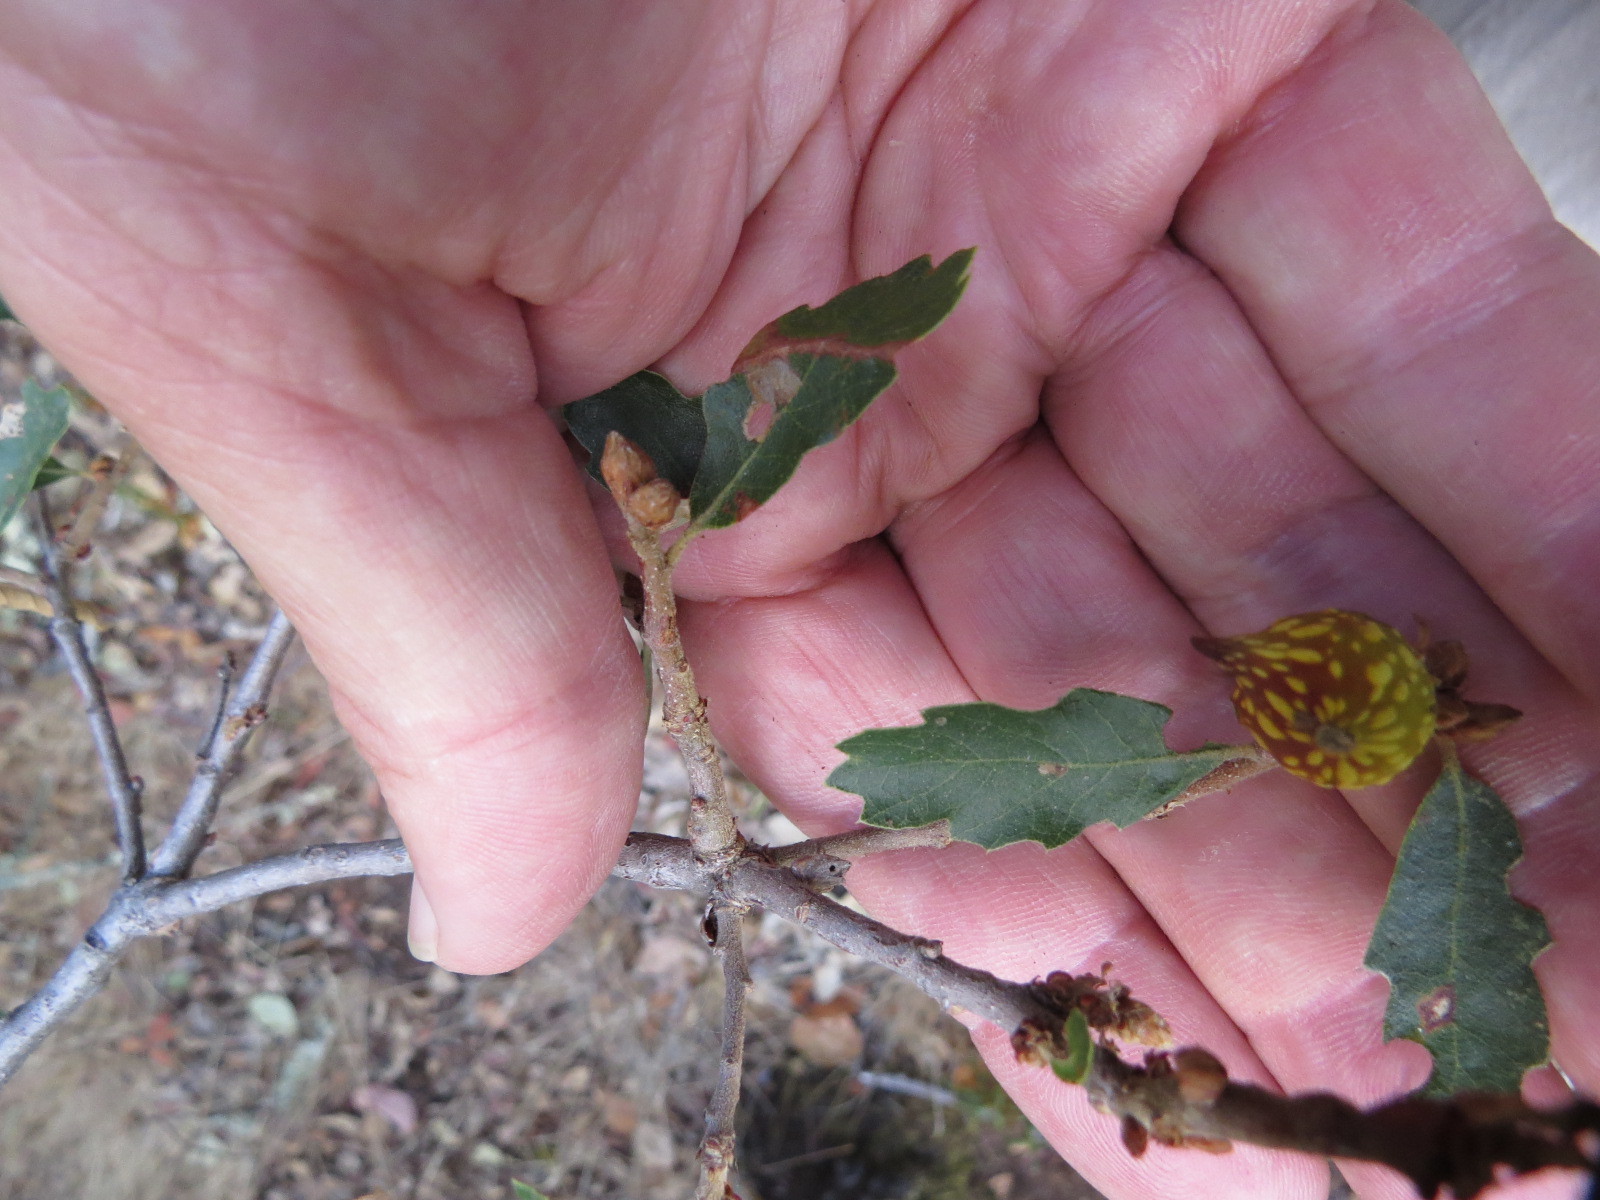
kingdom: Animalia
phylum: Arthropoda
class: Insecta
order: Hymenoptera
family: Cynipidae
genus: Burnettweldia
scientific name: Burnettweldia
